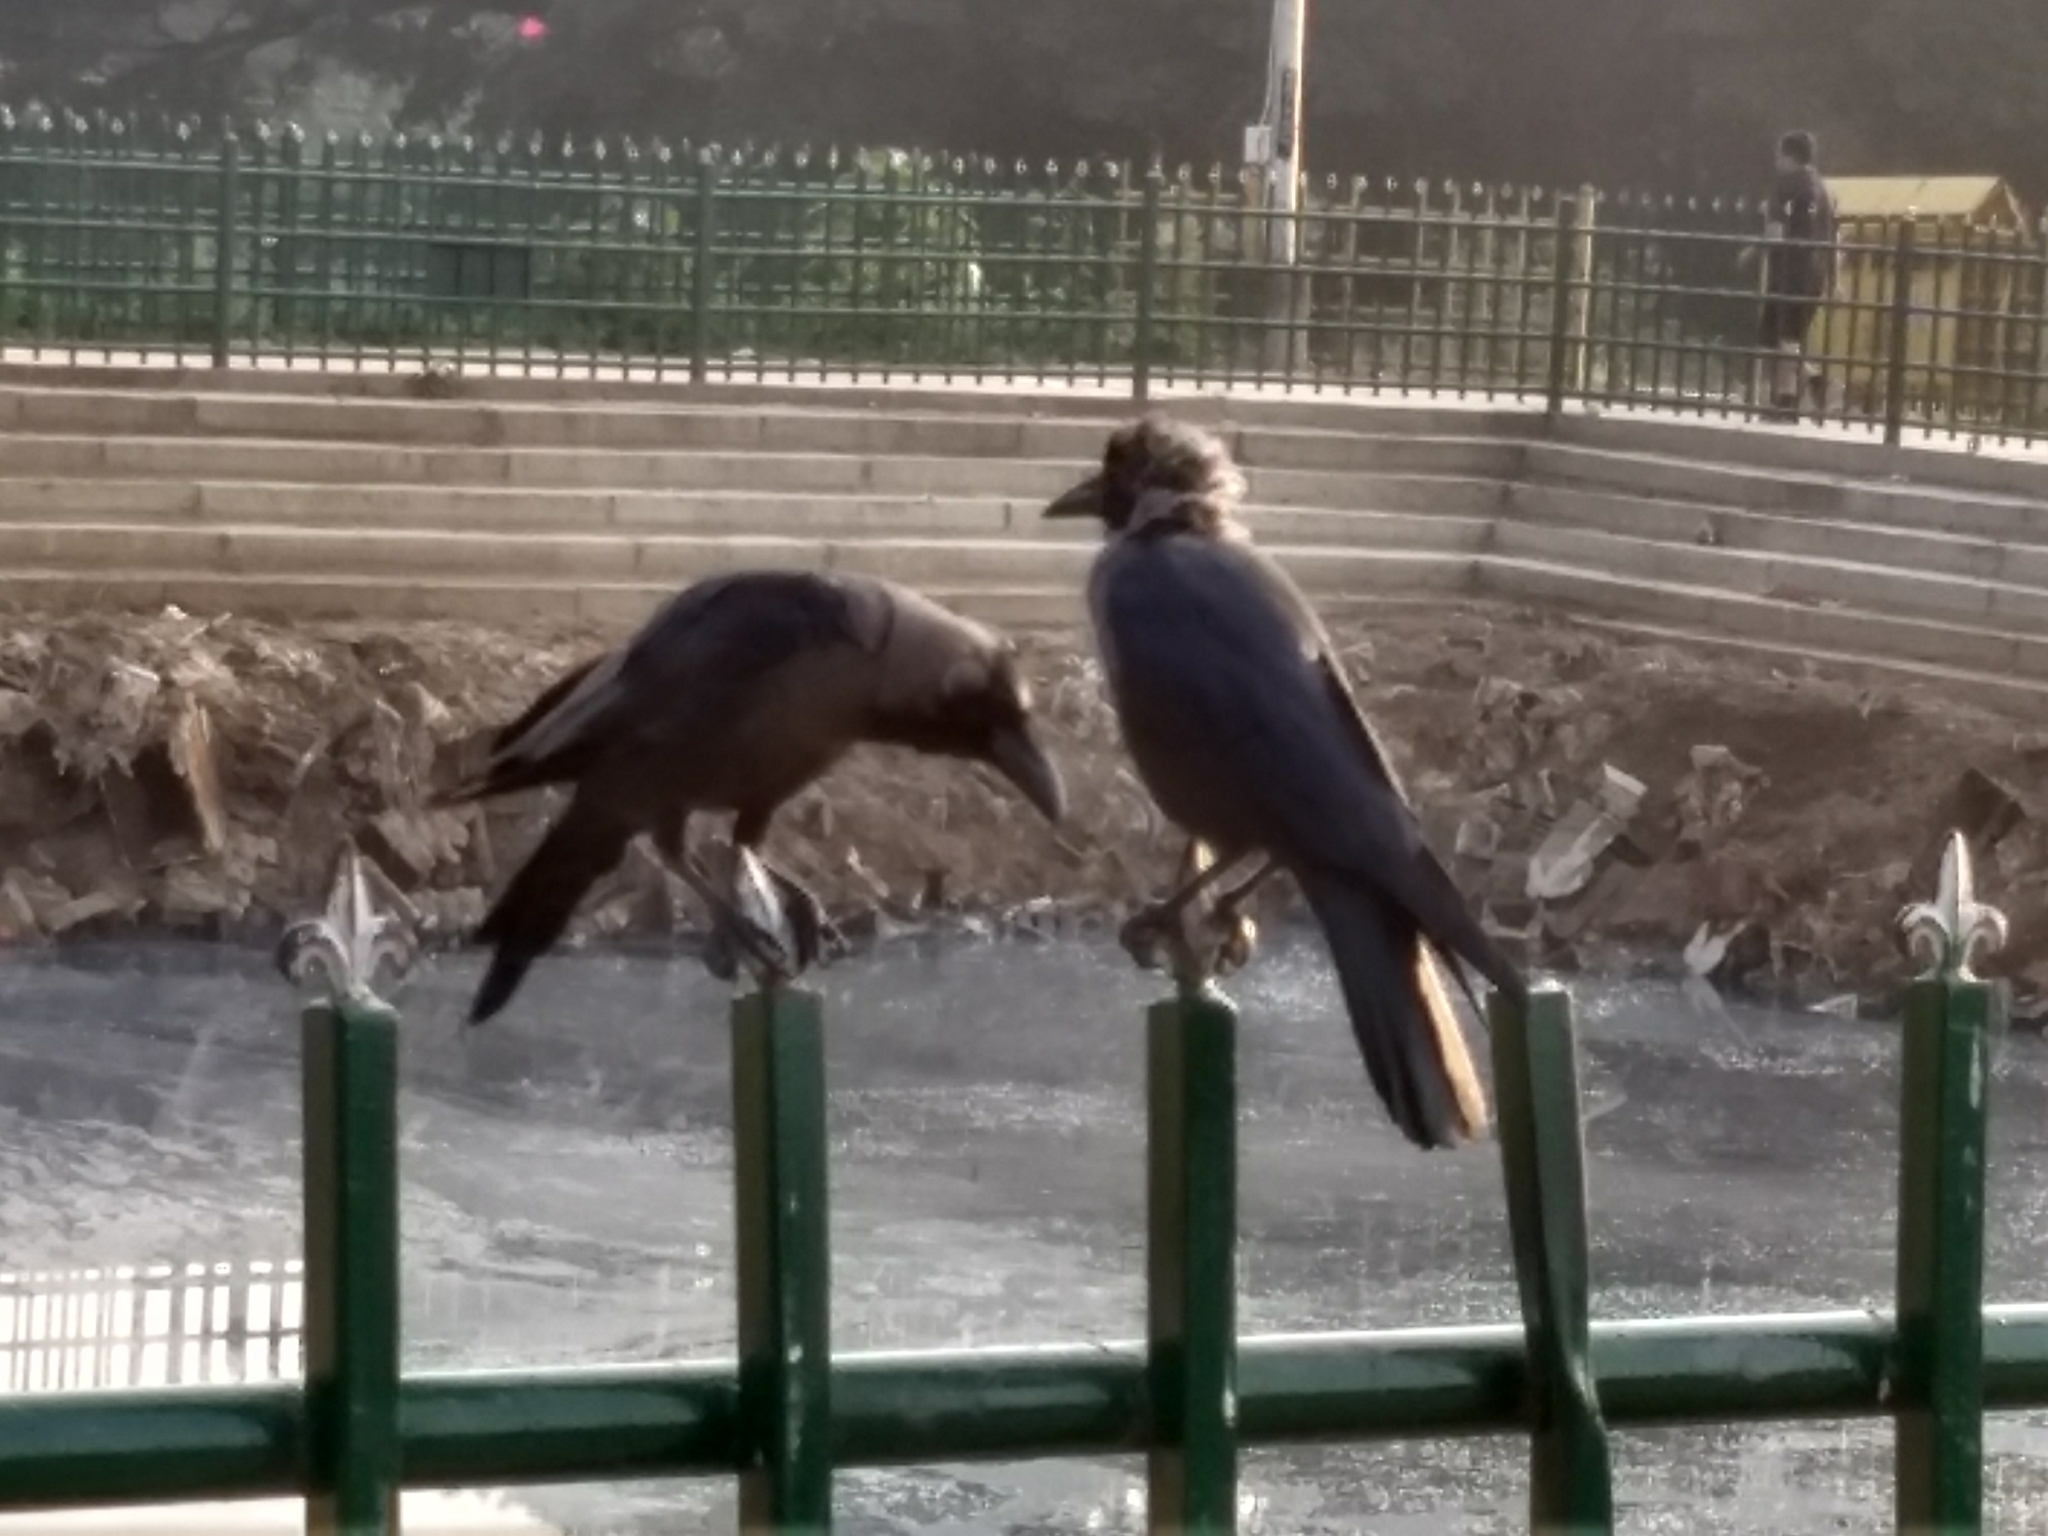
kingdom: Animalia
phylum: Chordata
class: Aves
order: Passeriformes
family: Corvidae
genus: Corvus
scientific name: Corvus splendens
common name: House crow
